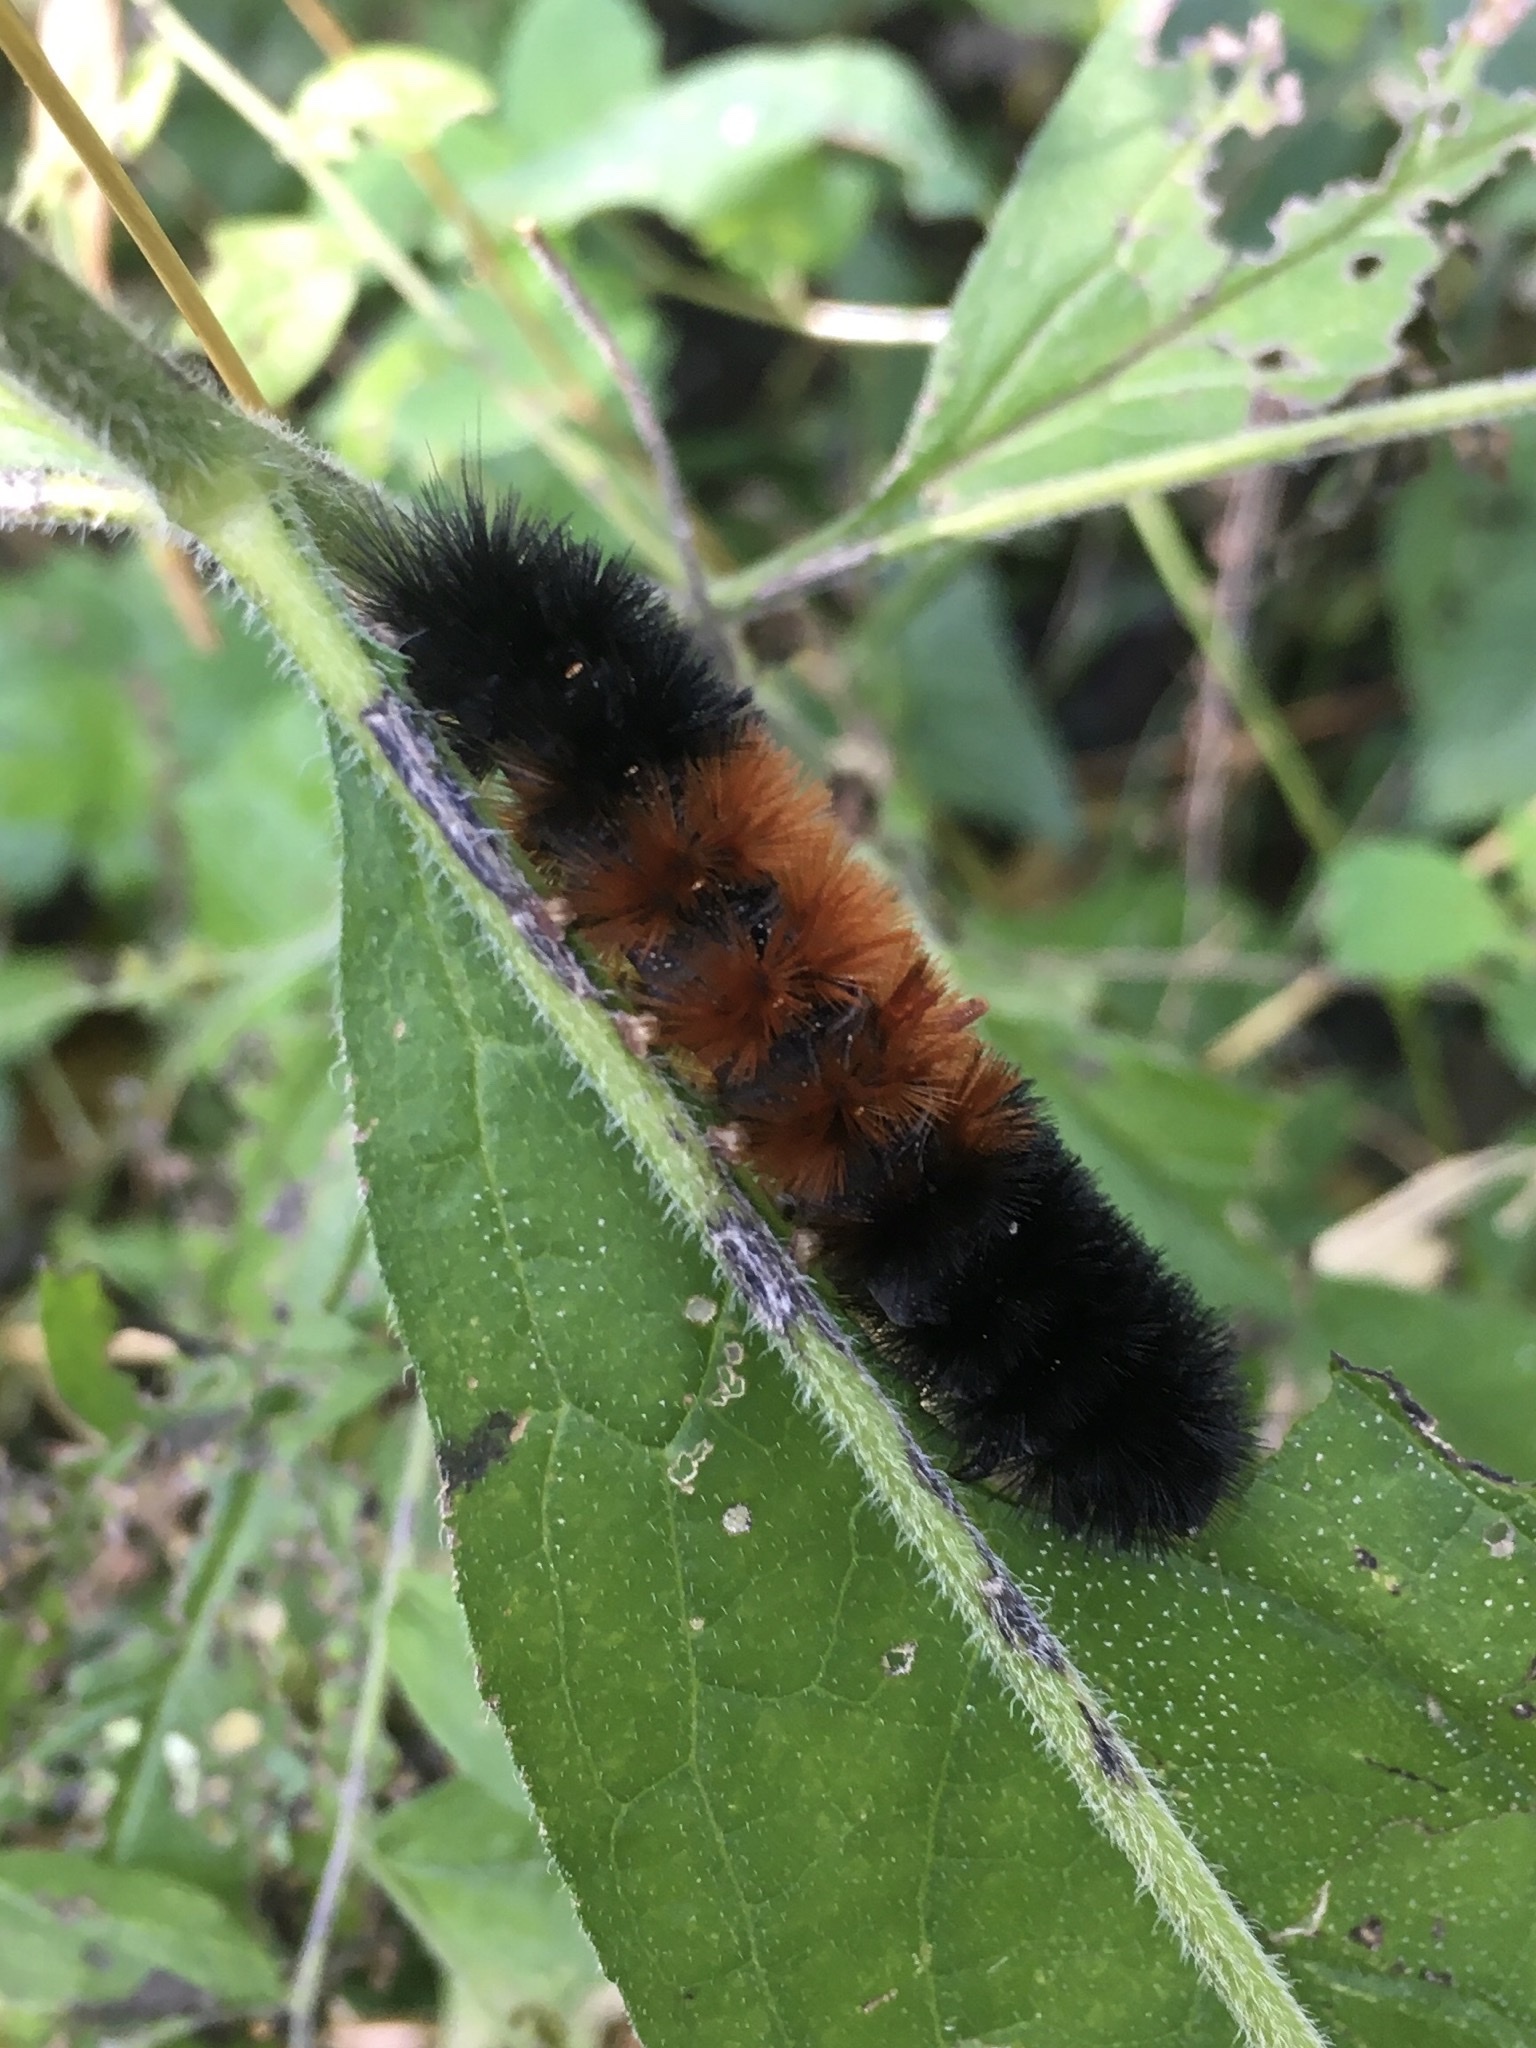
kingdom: Animalia
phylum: Arthropoda
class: Insecta
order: Lepidoptera
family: Erebidae
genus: Pyrrharctia
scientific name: Pyrrharctia isabella
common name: Isabella tiger moth
